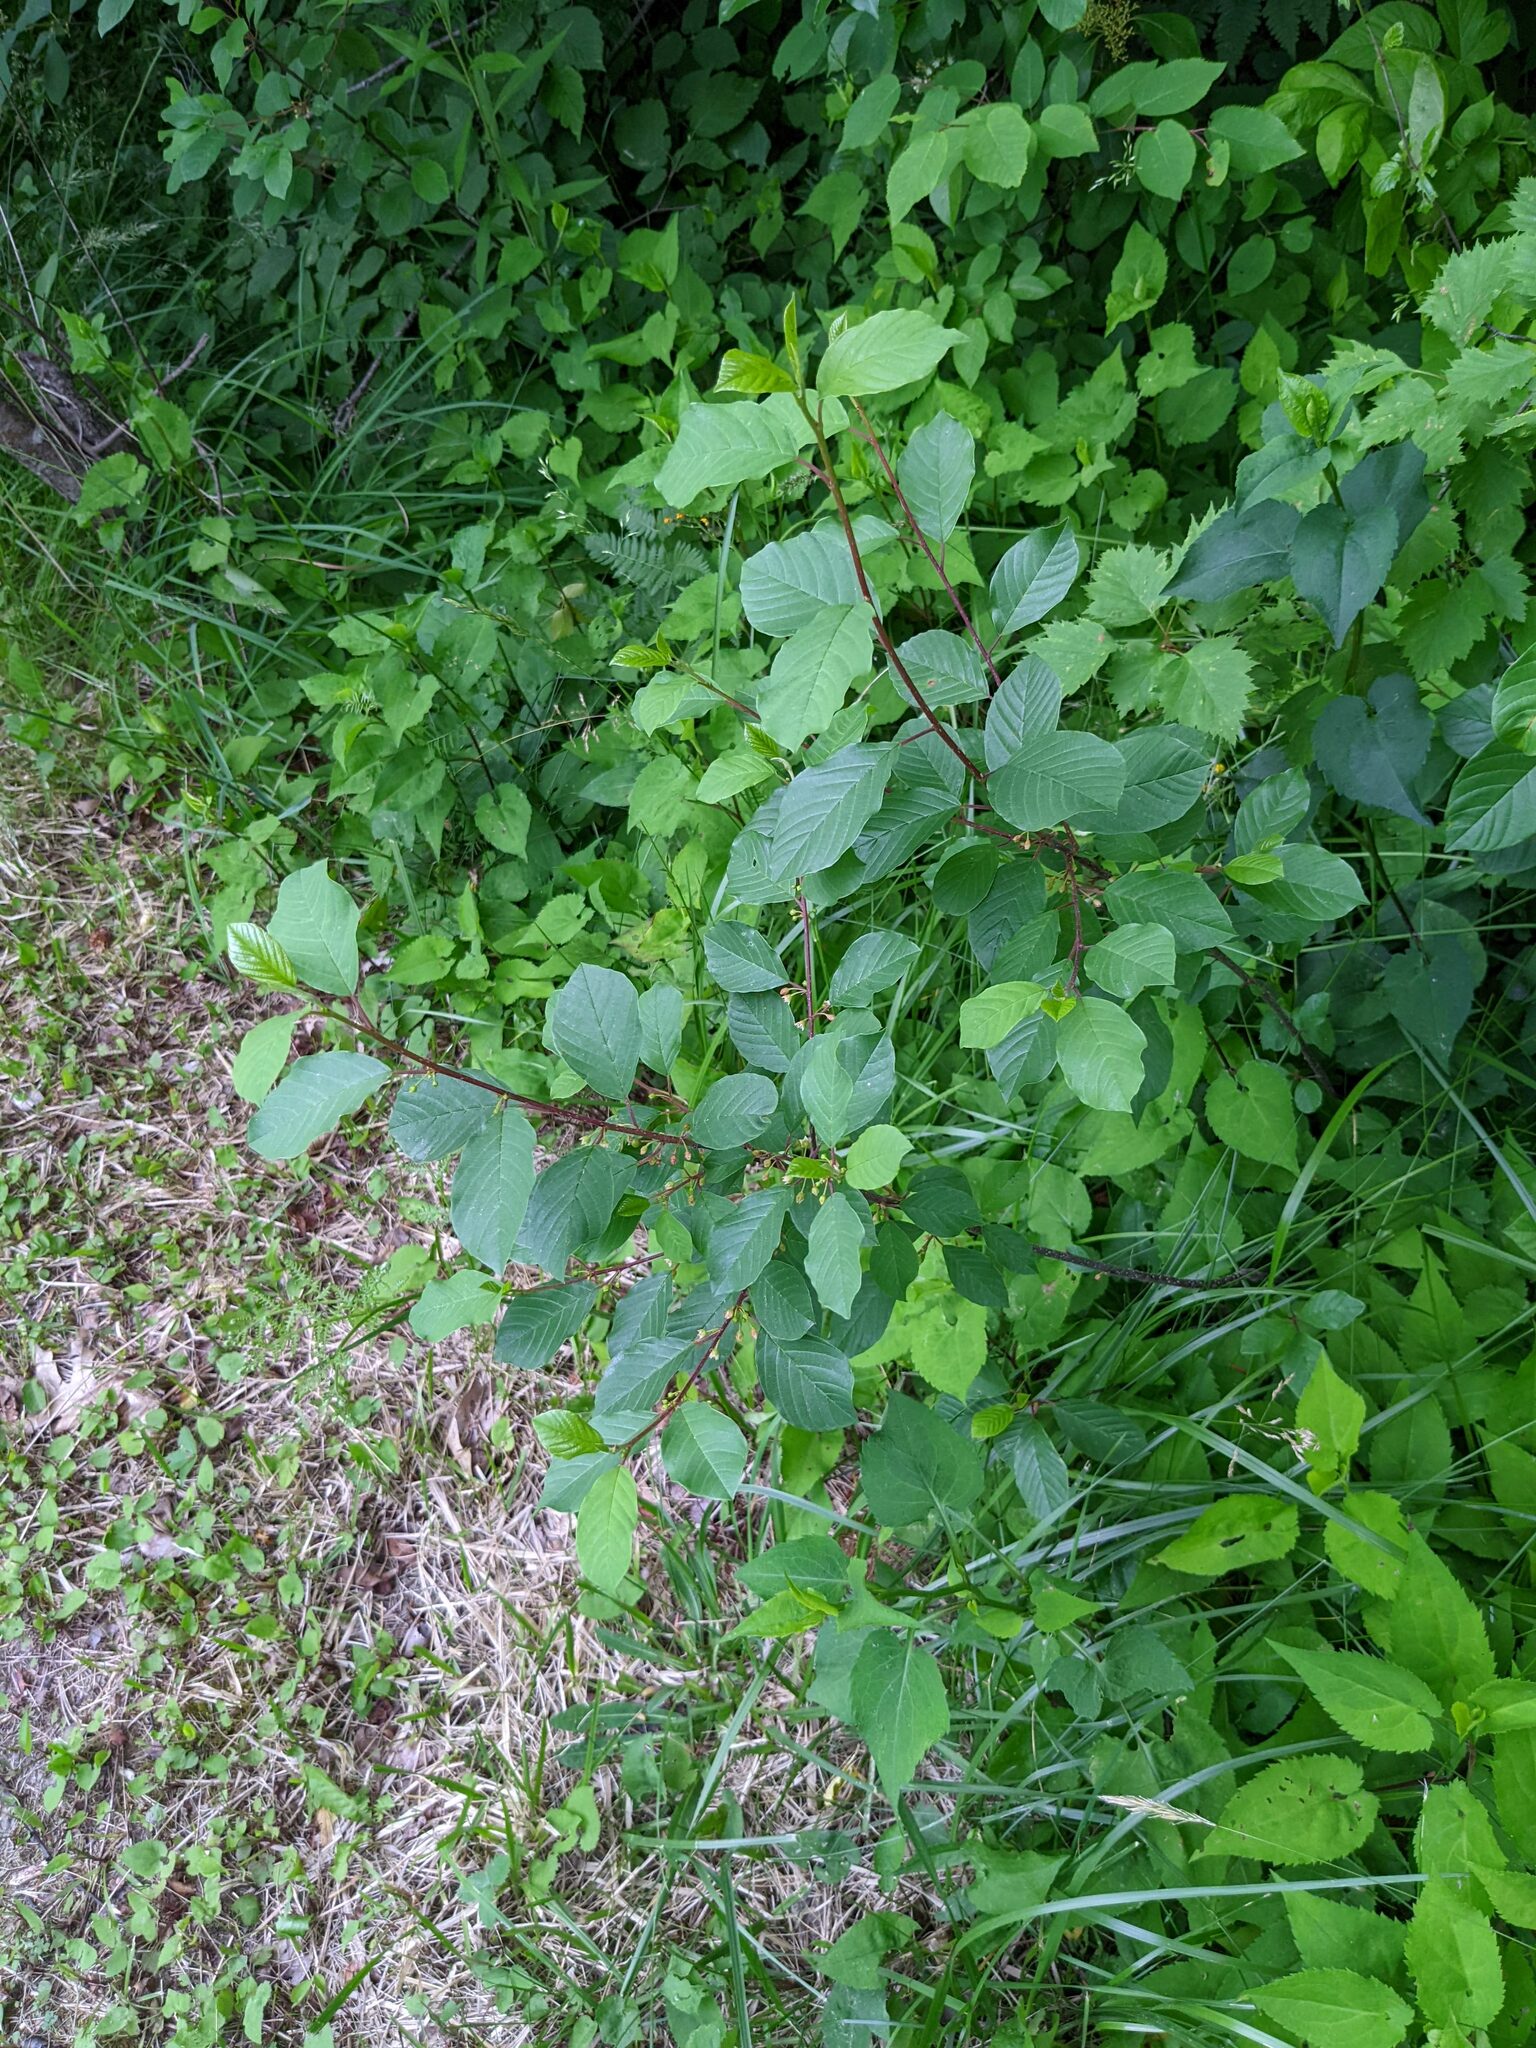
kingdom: Plantae
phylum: Tracheophyta
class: Magnoliopsida
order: Rosales
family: Rhamnaceae
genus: Frangula
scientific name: Frangula alnus
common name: Alder buckthorn
